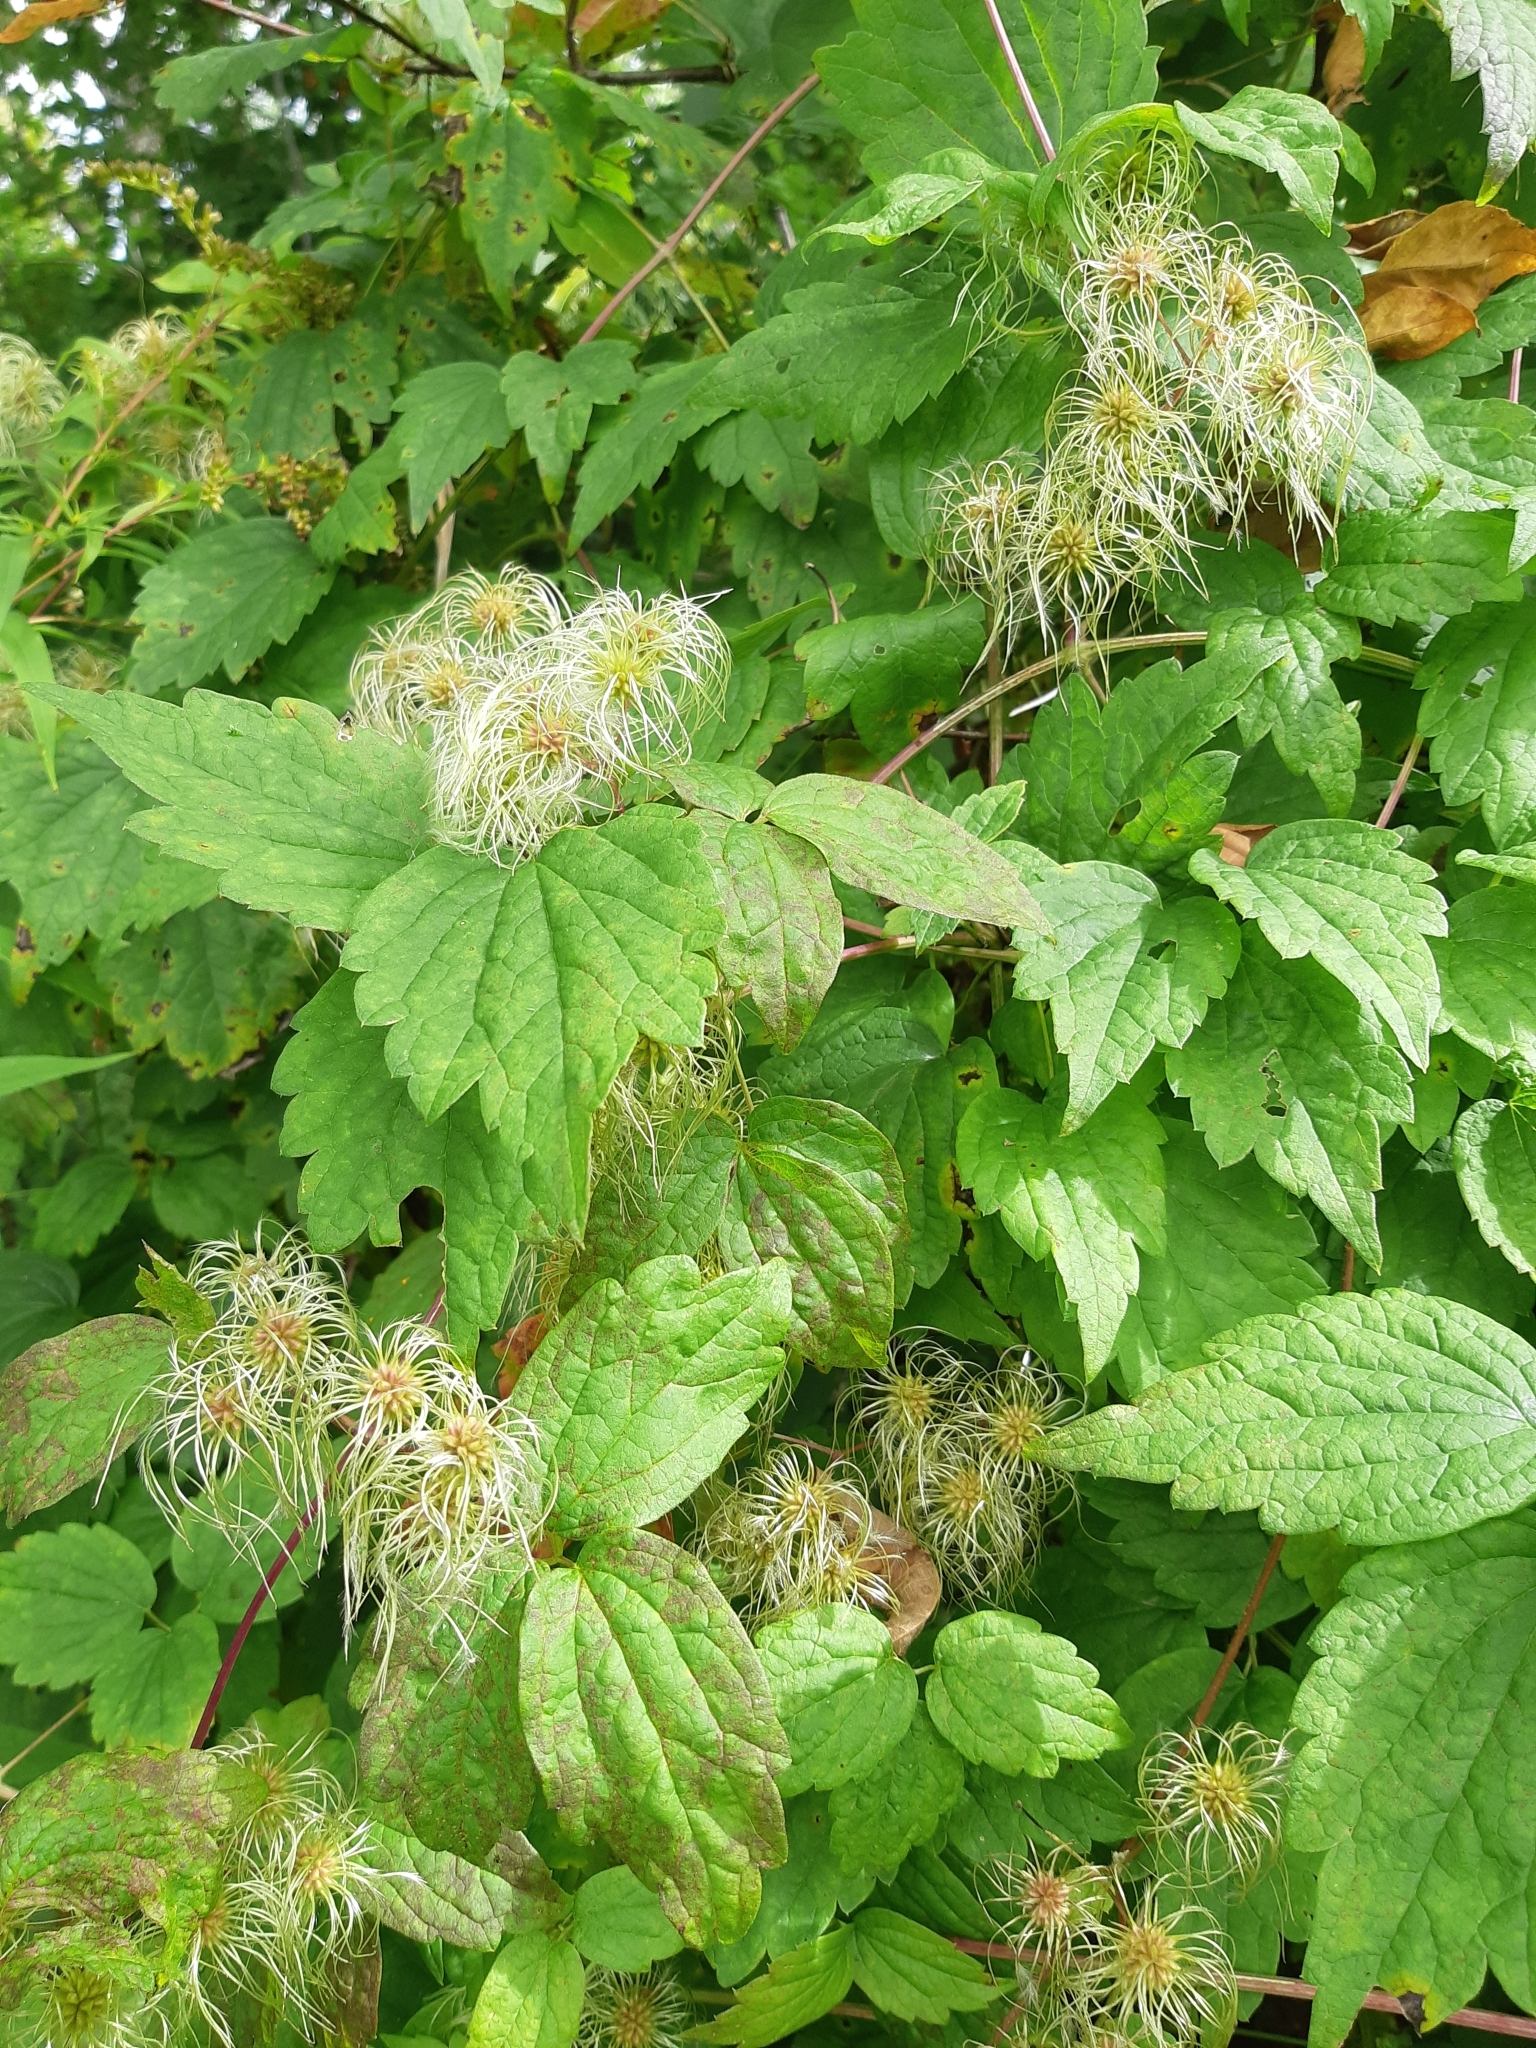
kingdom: Plantae
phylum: Tracheophyta
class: Magnoliopsida
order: Ranunculales
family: Ranunculaceae
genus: Clematis
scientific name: Clematis virginiana
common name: Virgin's-bower
